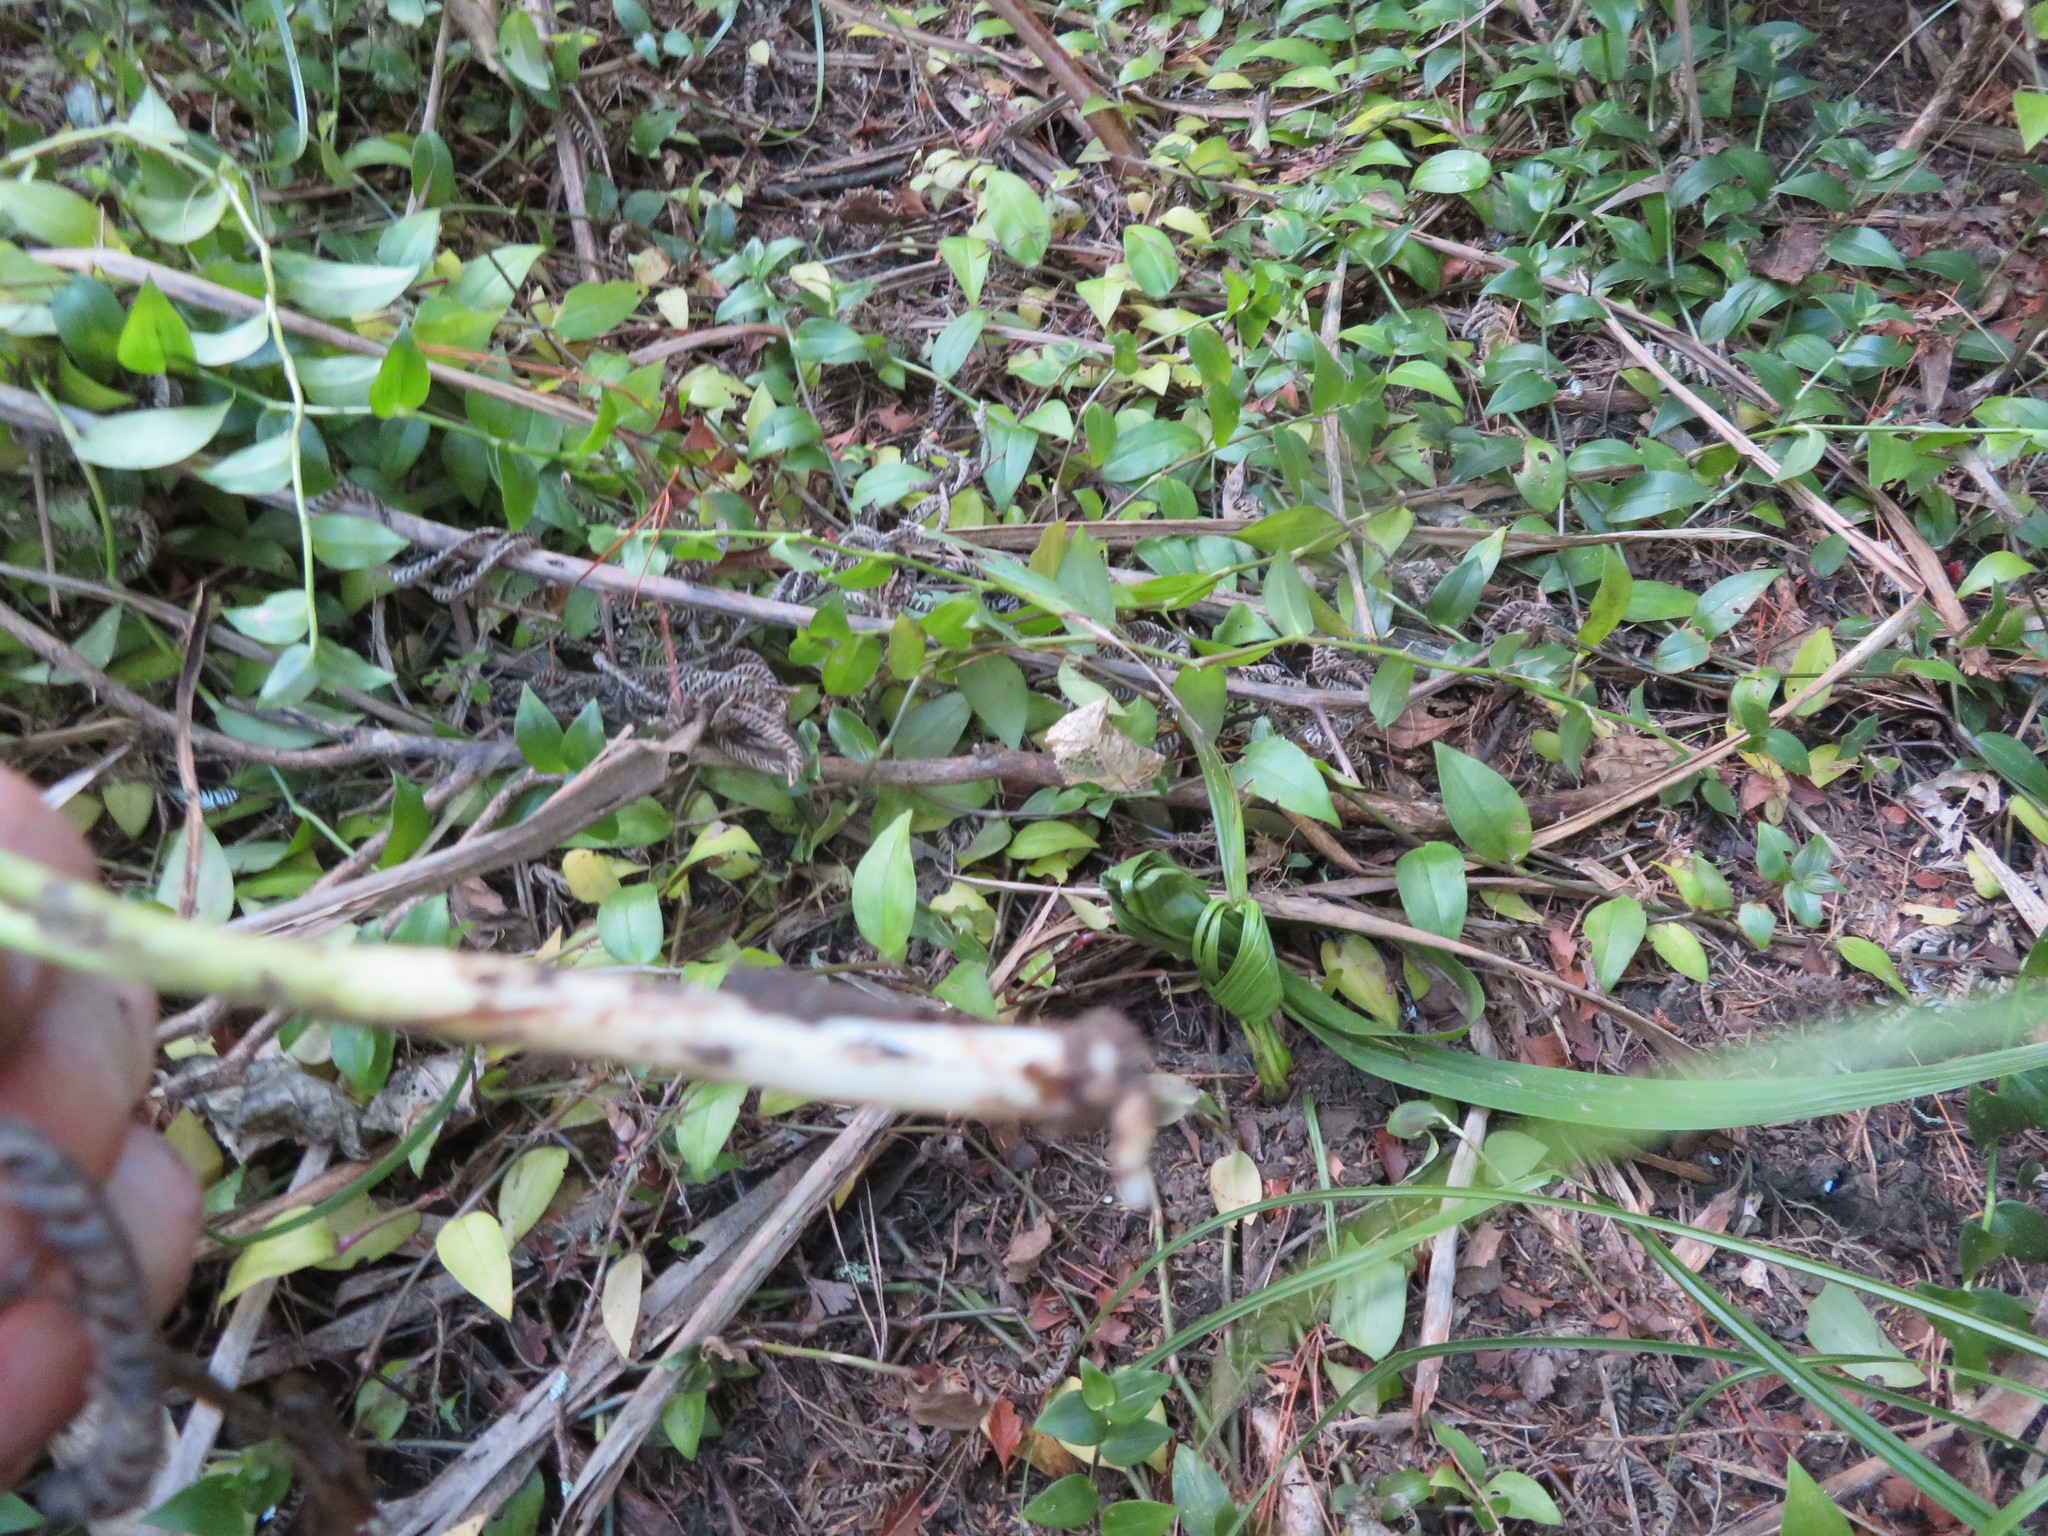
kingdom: Plantae
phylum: Tracheophyta
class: Liliopsida
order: Arecales
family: Arecaceae
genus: Phoenix
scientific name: Phoenix canariensis
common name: Canary island date palm
